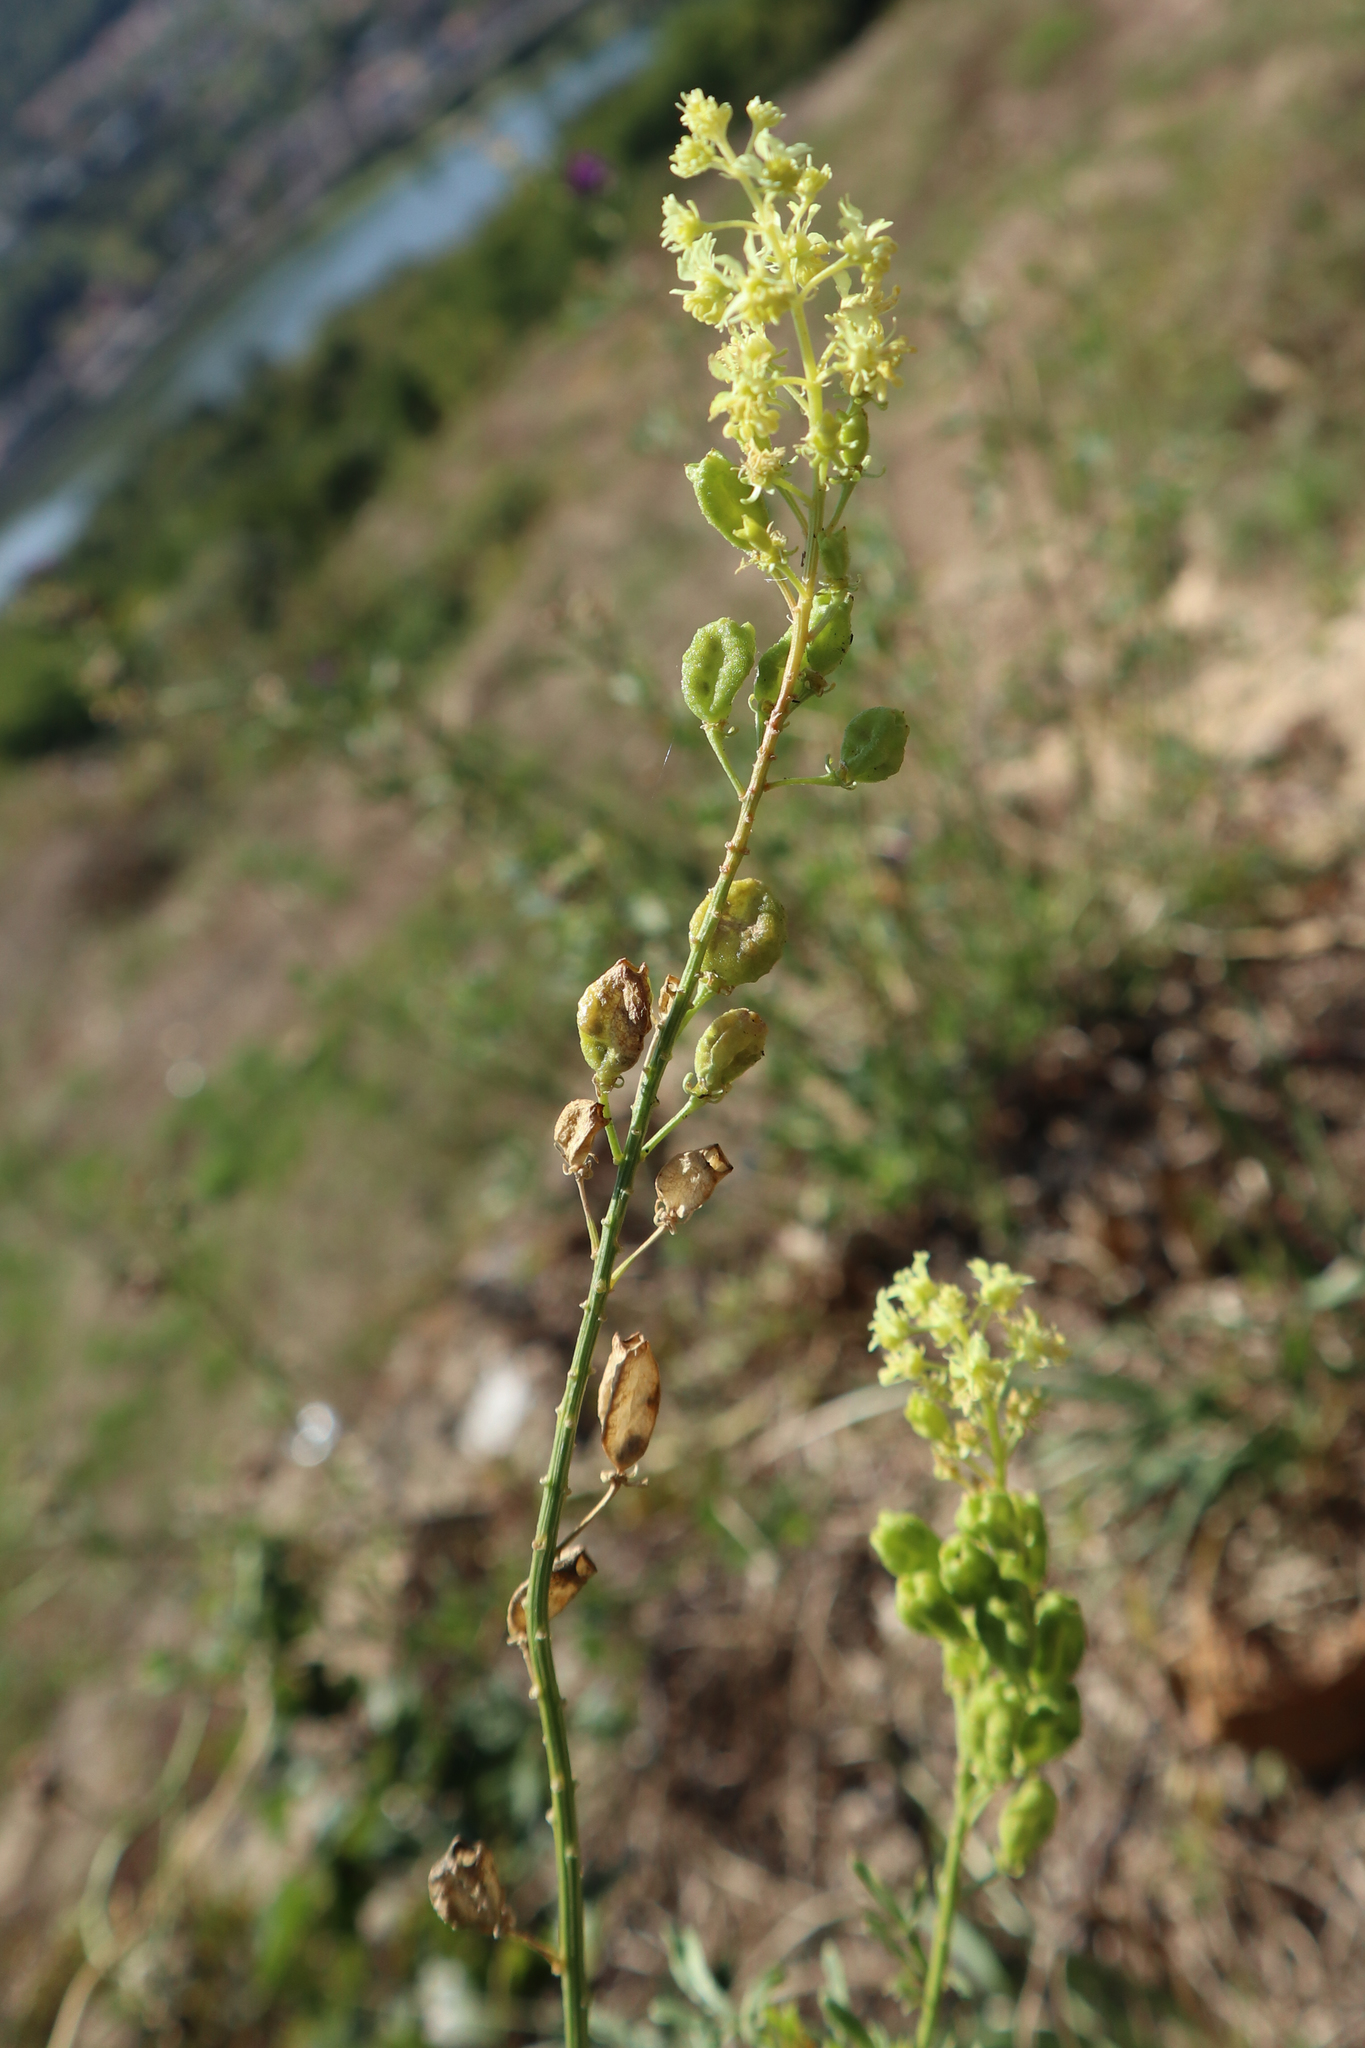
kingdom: Plantae
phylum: Tracheophyta
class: Magnoliopsida
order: Brassicales
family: Resedaceae
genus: Reseda
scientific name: Reseda lutea
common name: Wild mignonette
